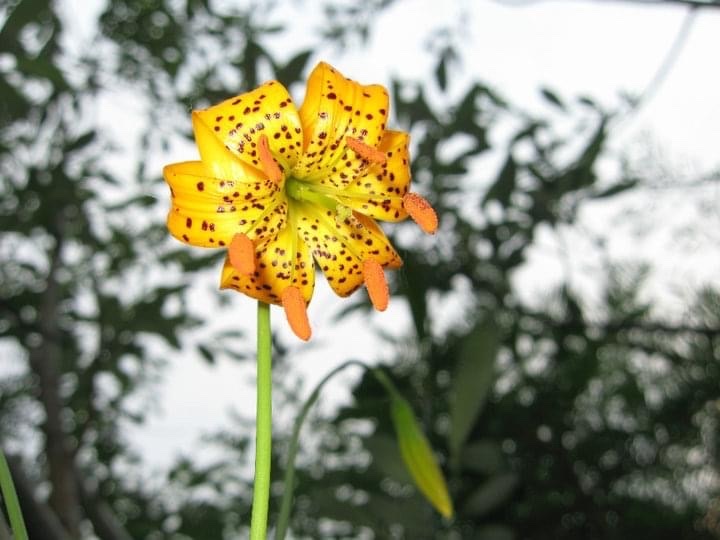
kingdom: Plantae
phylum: Tracheophyta
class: Liliopsida
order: Liliales
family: Liliaceae
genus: Lilium
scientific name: Lilium kelleyanum
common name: Kelley's lily
